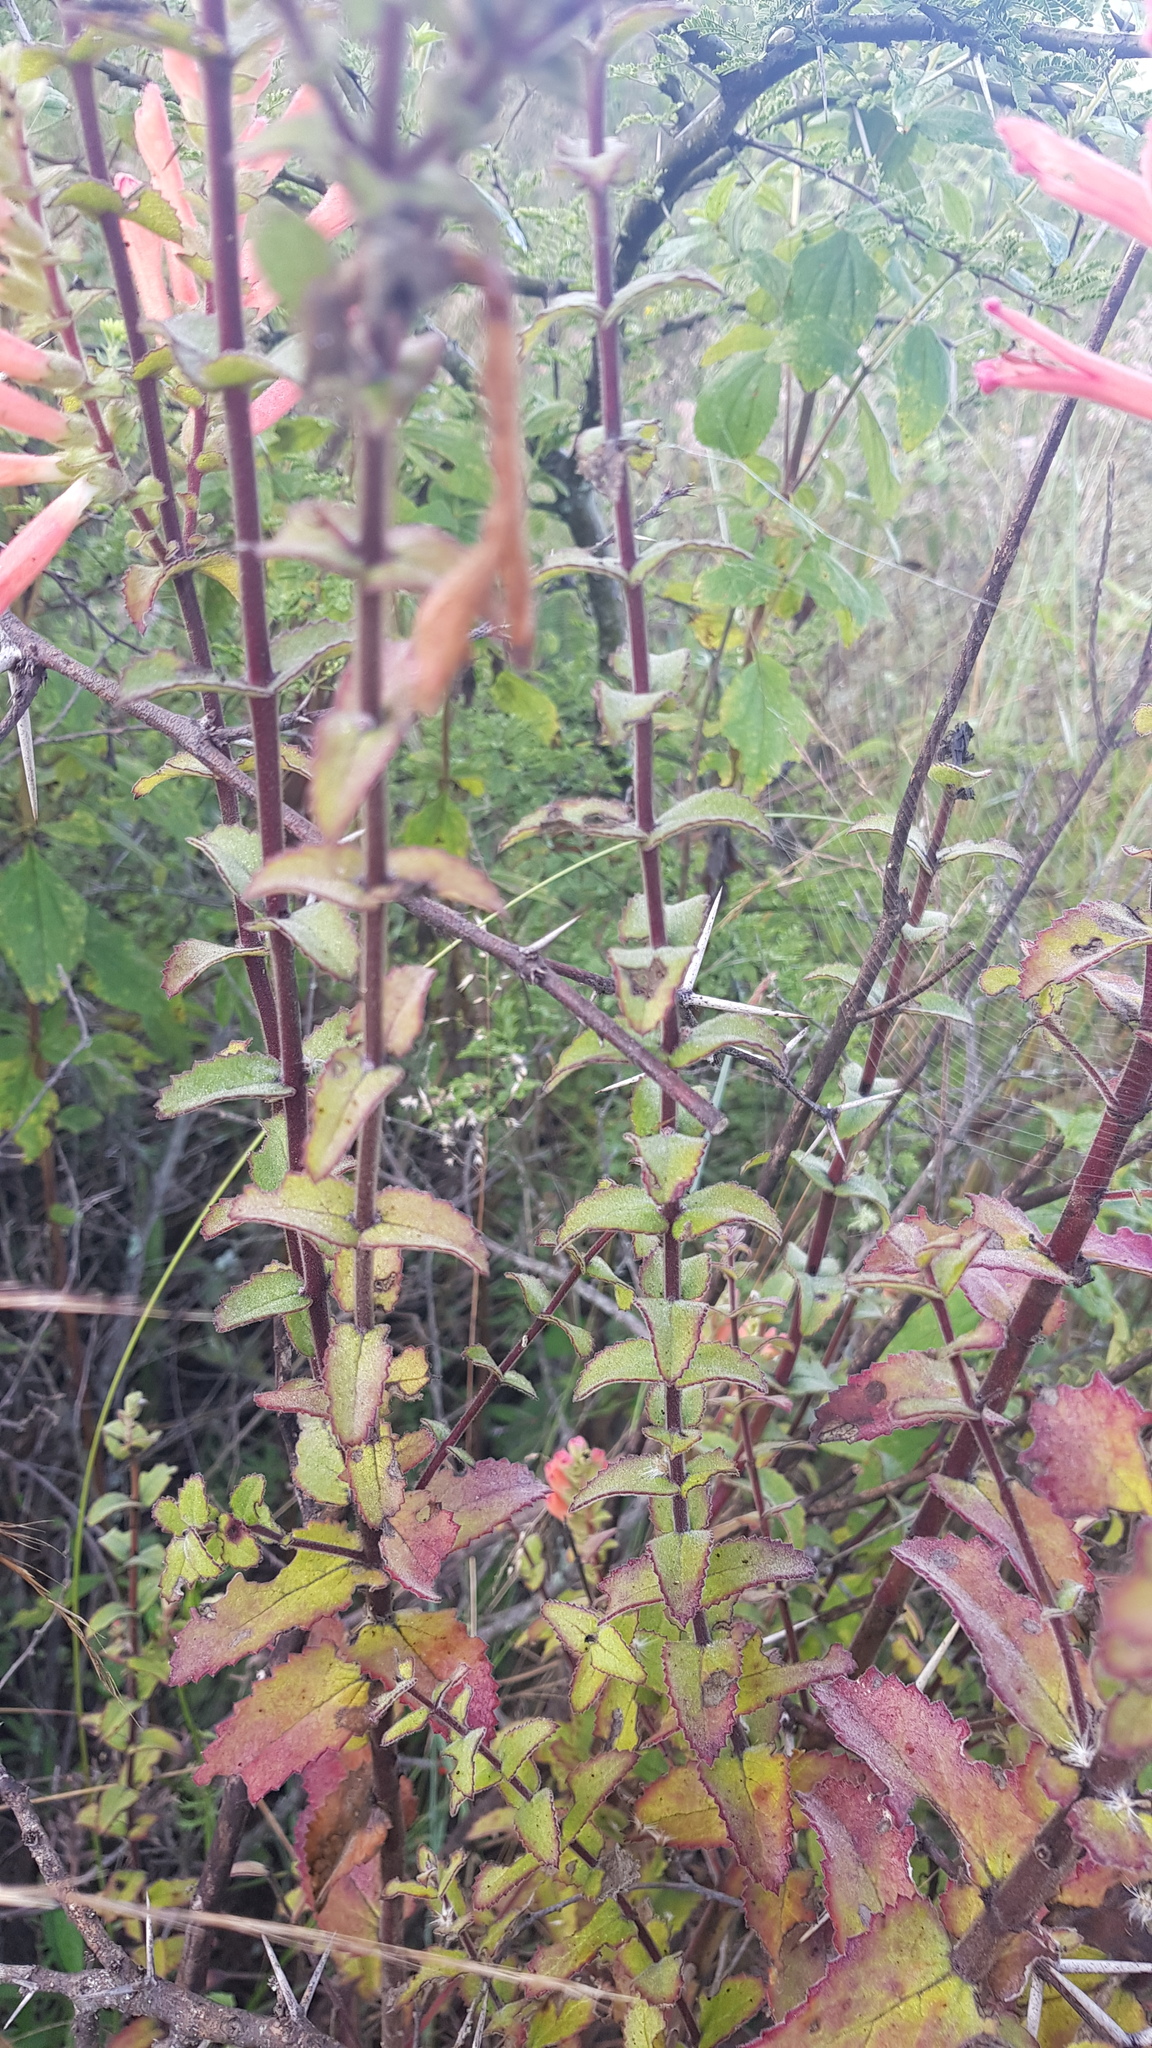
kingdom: Plantae
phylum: Tracheophyta
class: Magnoliopsida
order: Lamiales
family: Orobanchaceae
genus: Lamourouxia
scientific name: Lamourouxia viscosa
